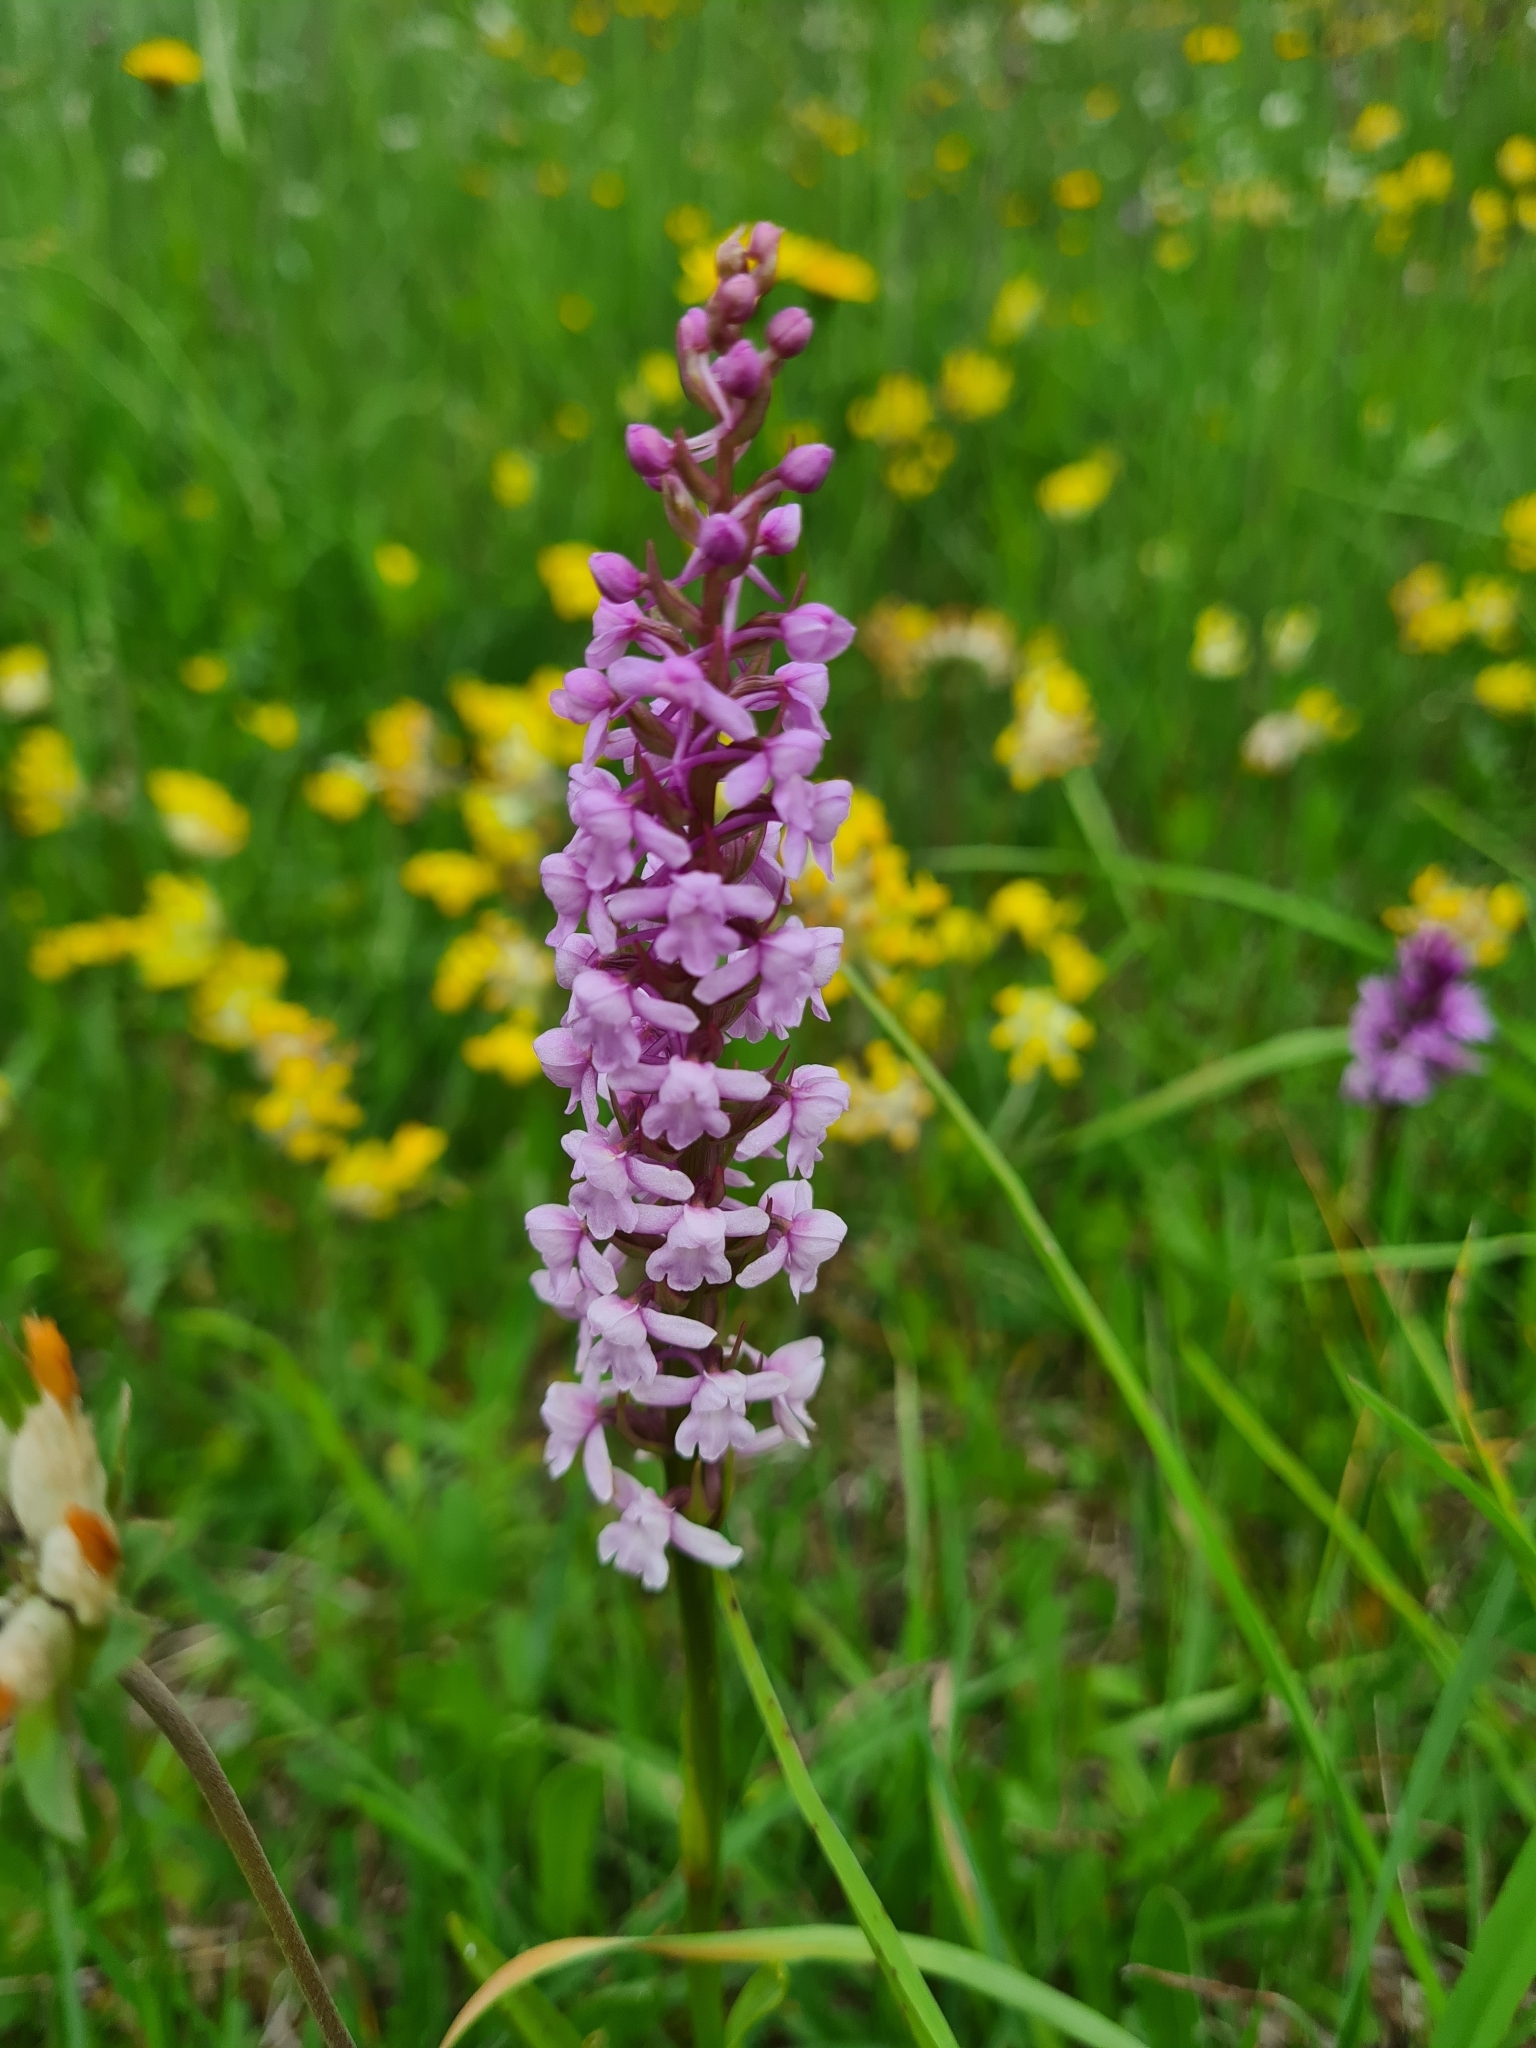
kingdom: Plantae
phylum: Tracheophyta
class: Liliopsida
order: Asparagales
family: Orchidaceae
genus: Gymnadenia
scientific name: Gymnadenia conopsea
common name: Fragrant orchid
